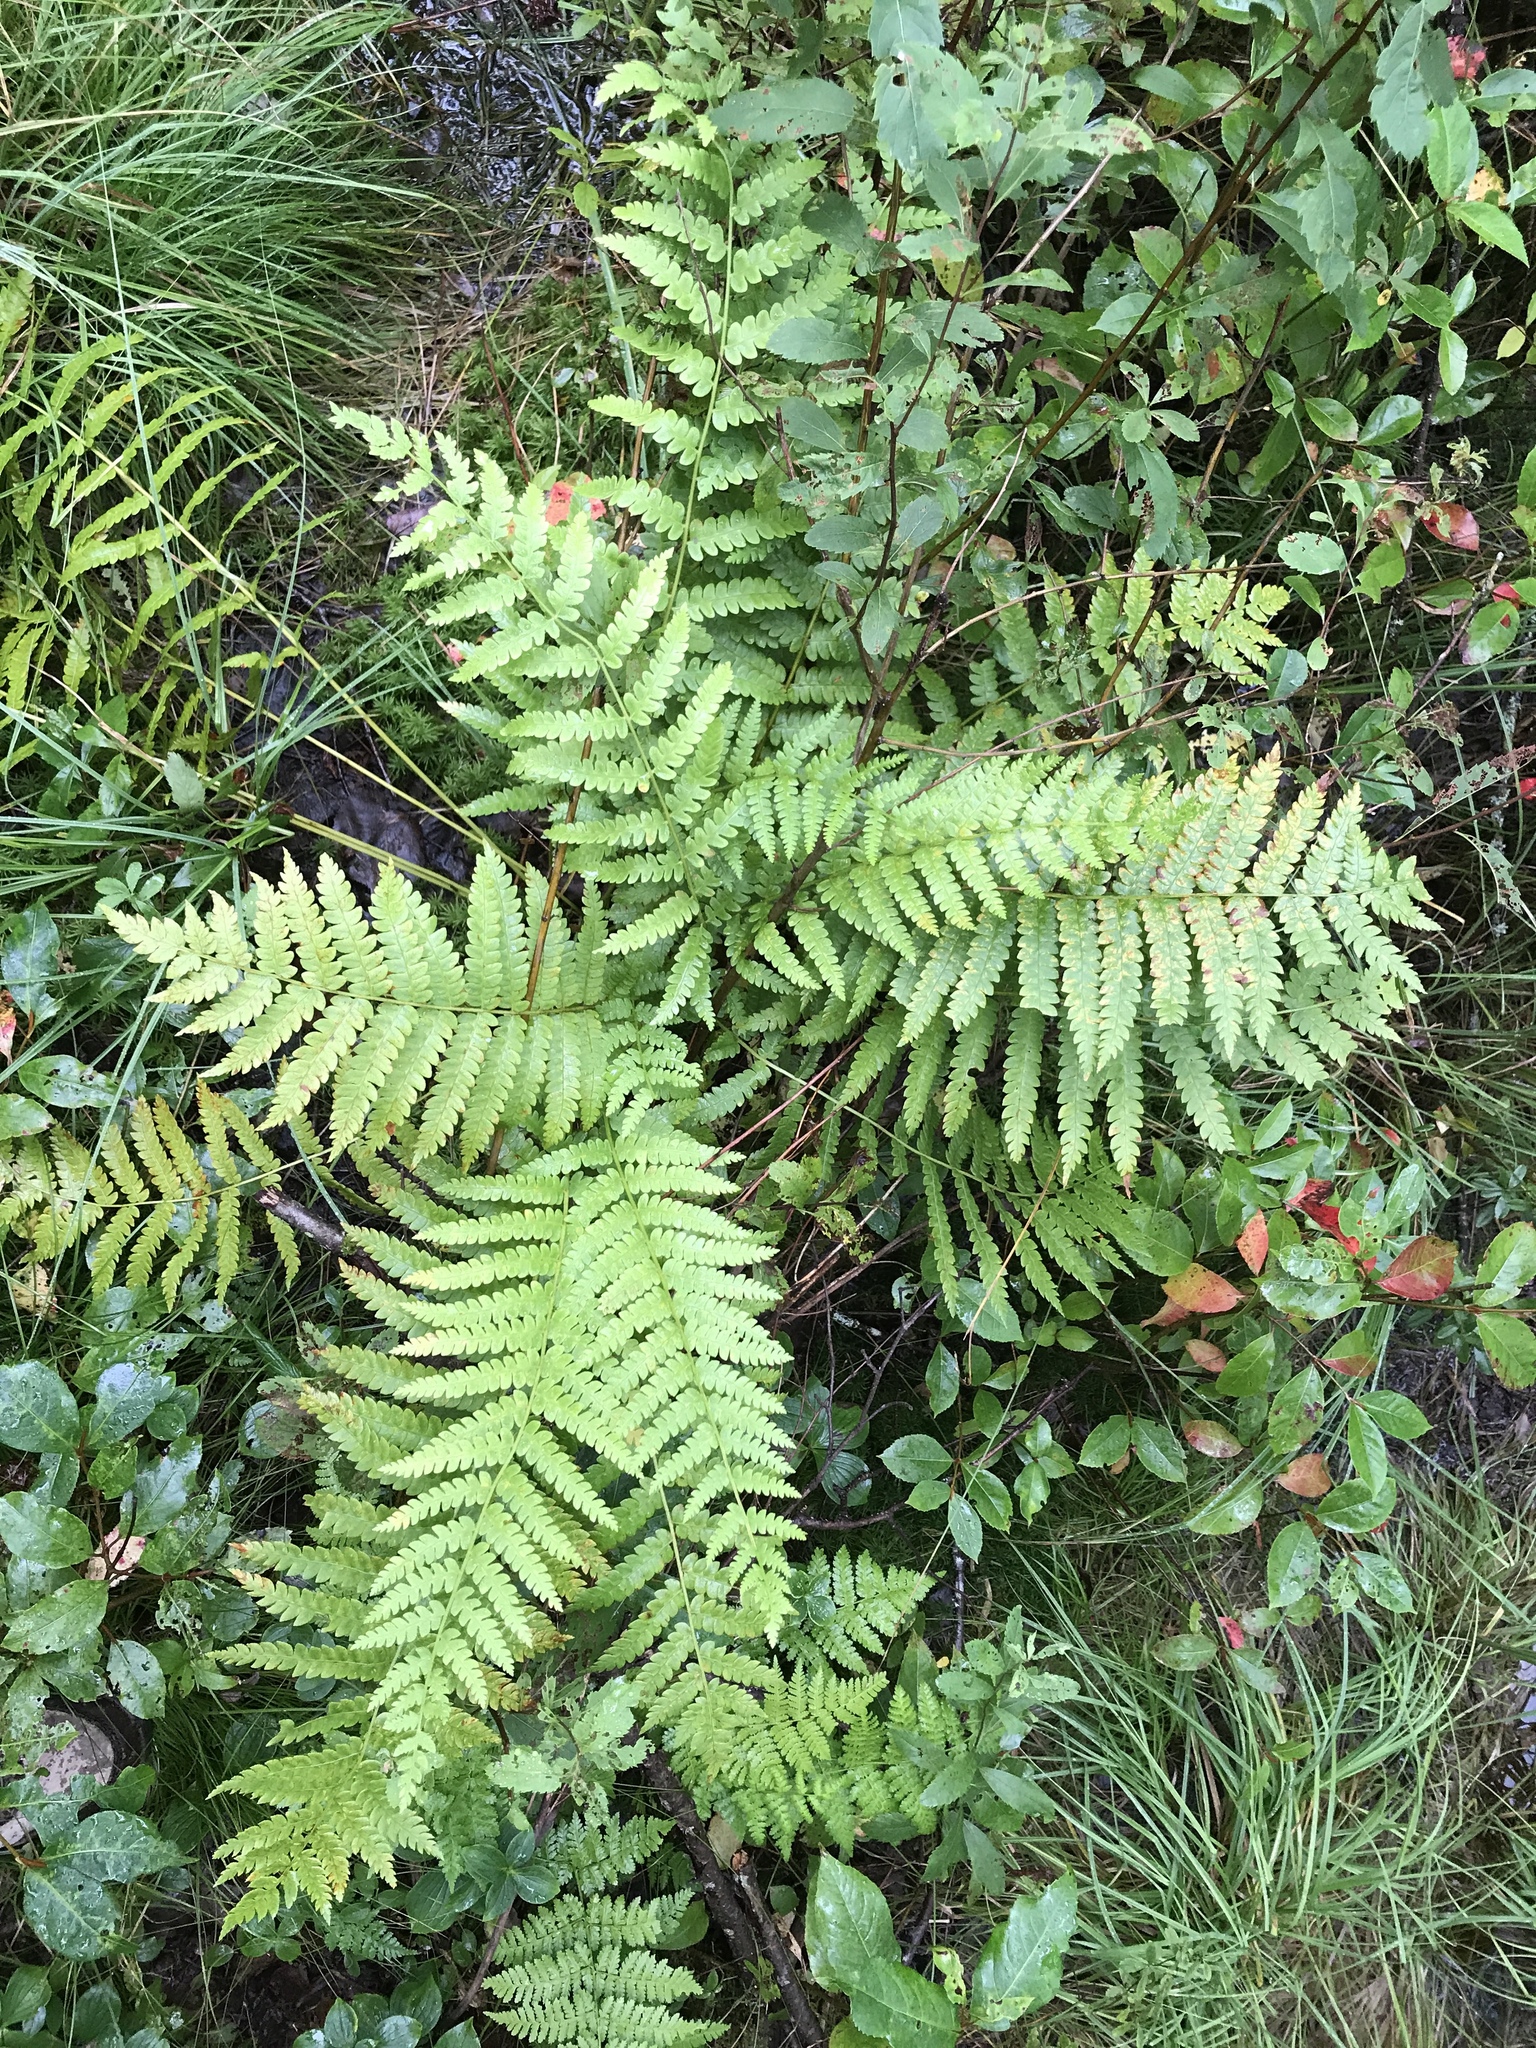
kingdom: Plantae
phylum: Tracheophyta
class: Polypodiopsida
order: Osmundales
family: Osmundaceae
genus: Osmundastrum
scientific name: Osmundastrum cinnamomeum
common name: Cinnamon fern
